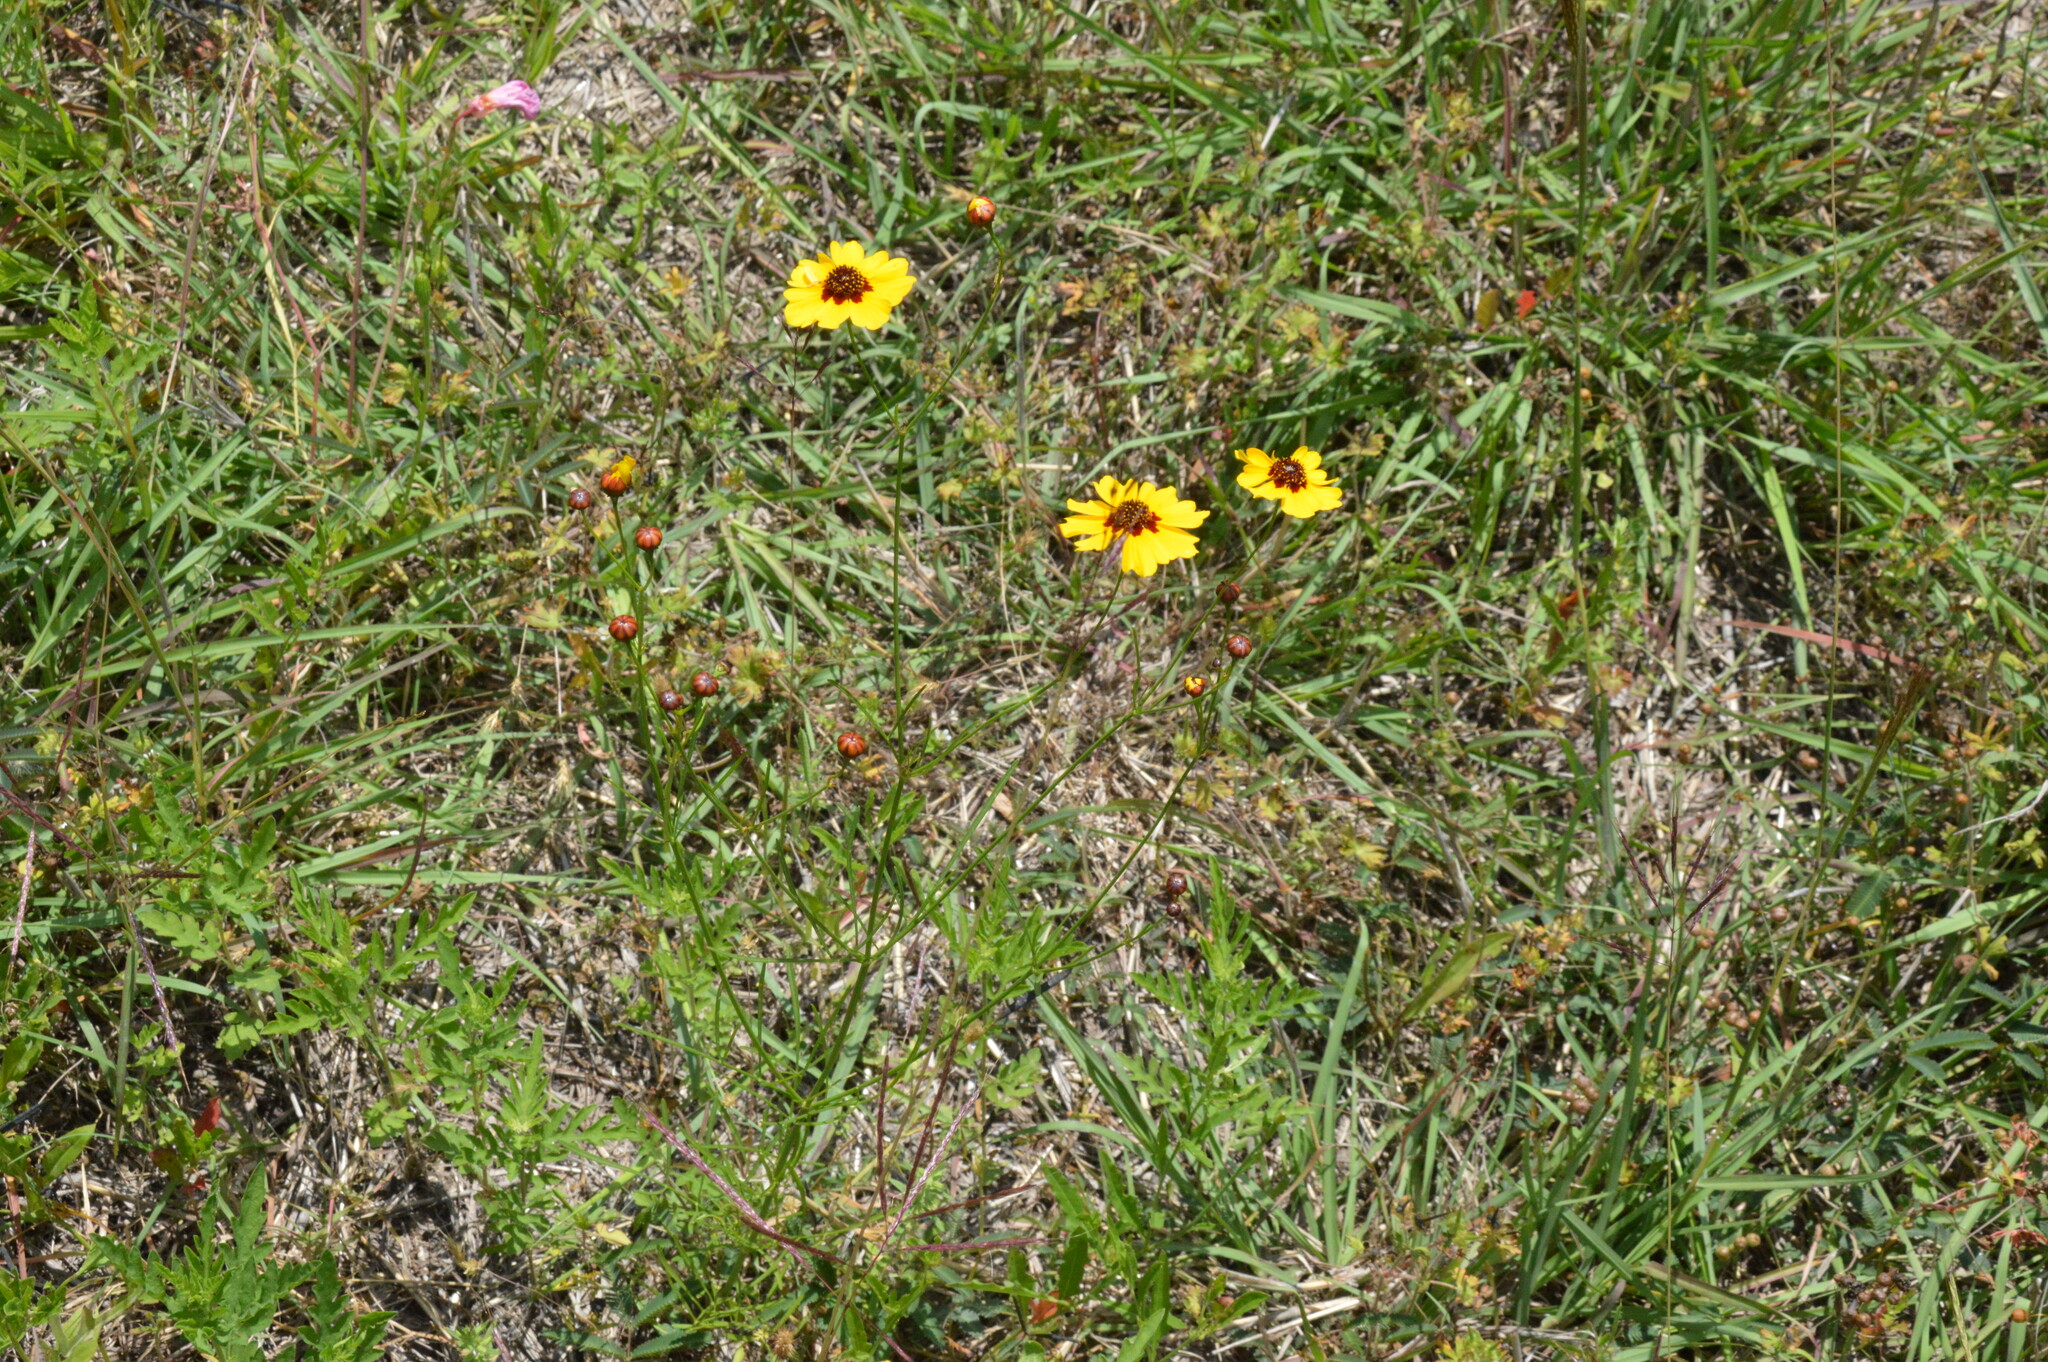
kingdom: Plantae
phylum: Tracheophyta
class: Magnoliopsida
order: Asterales
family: Asteraceae
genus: Coreopsis
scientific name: Coreopsis tinctoria
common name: Garden tickseed
